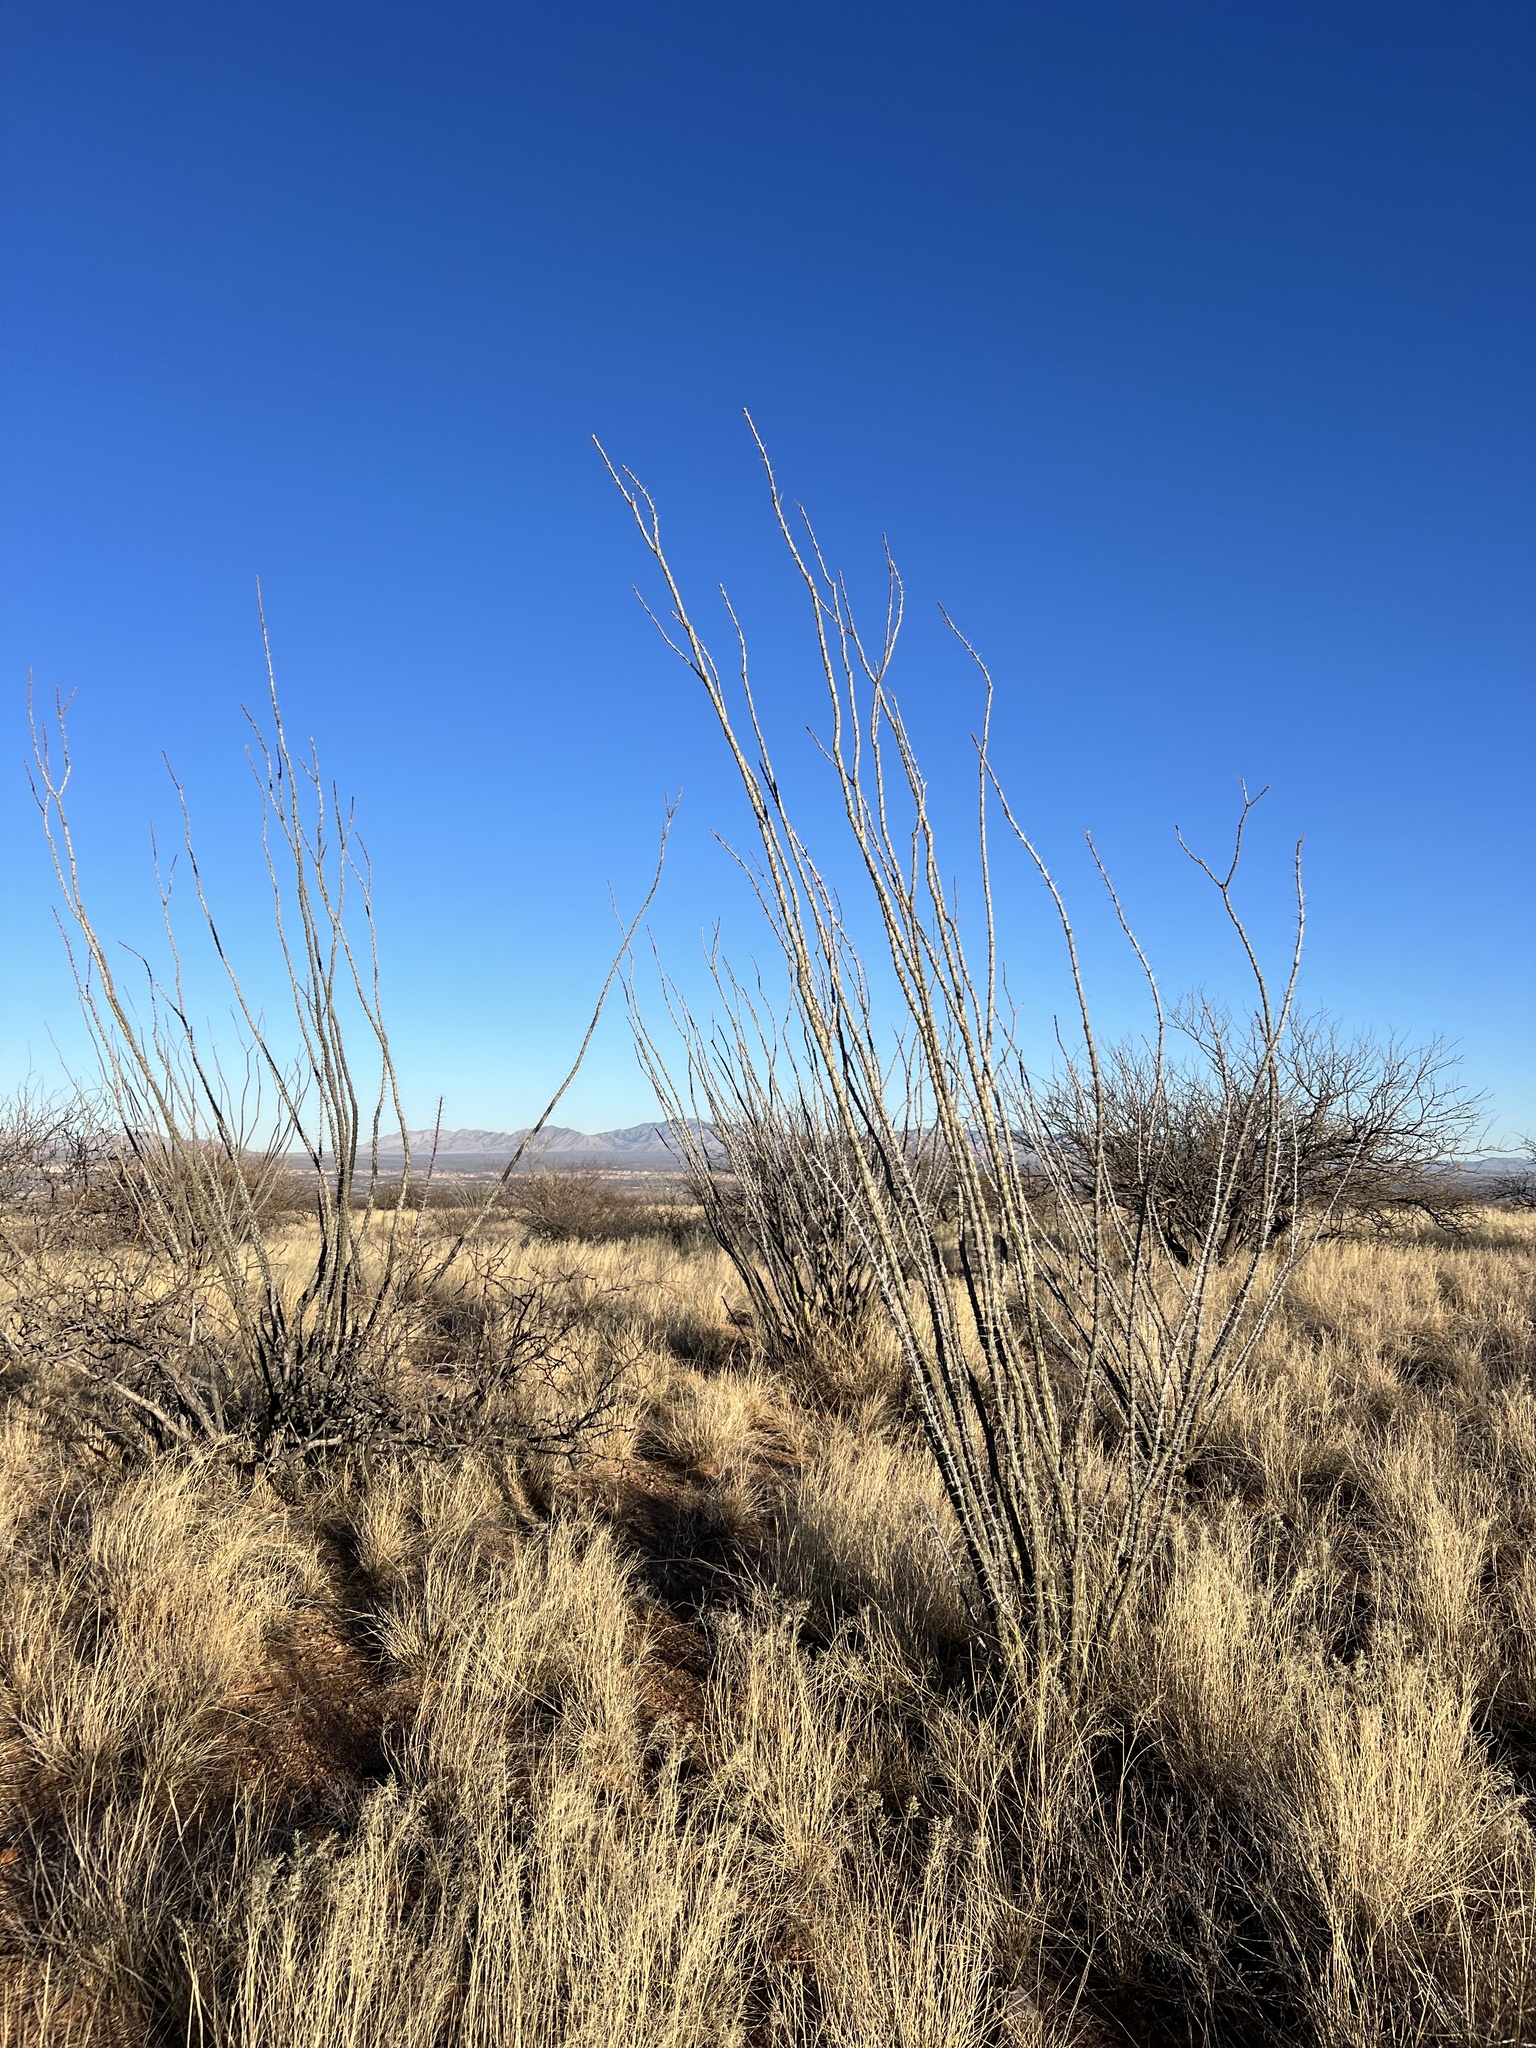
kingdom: Plantae
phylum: Tracheophyta
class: Magnoliopsida
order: Ericales
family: Fouquieriaceae
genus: Fouquieria
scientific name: Fouquieria splendens
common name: Vine-cactus
